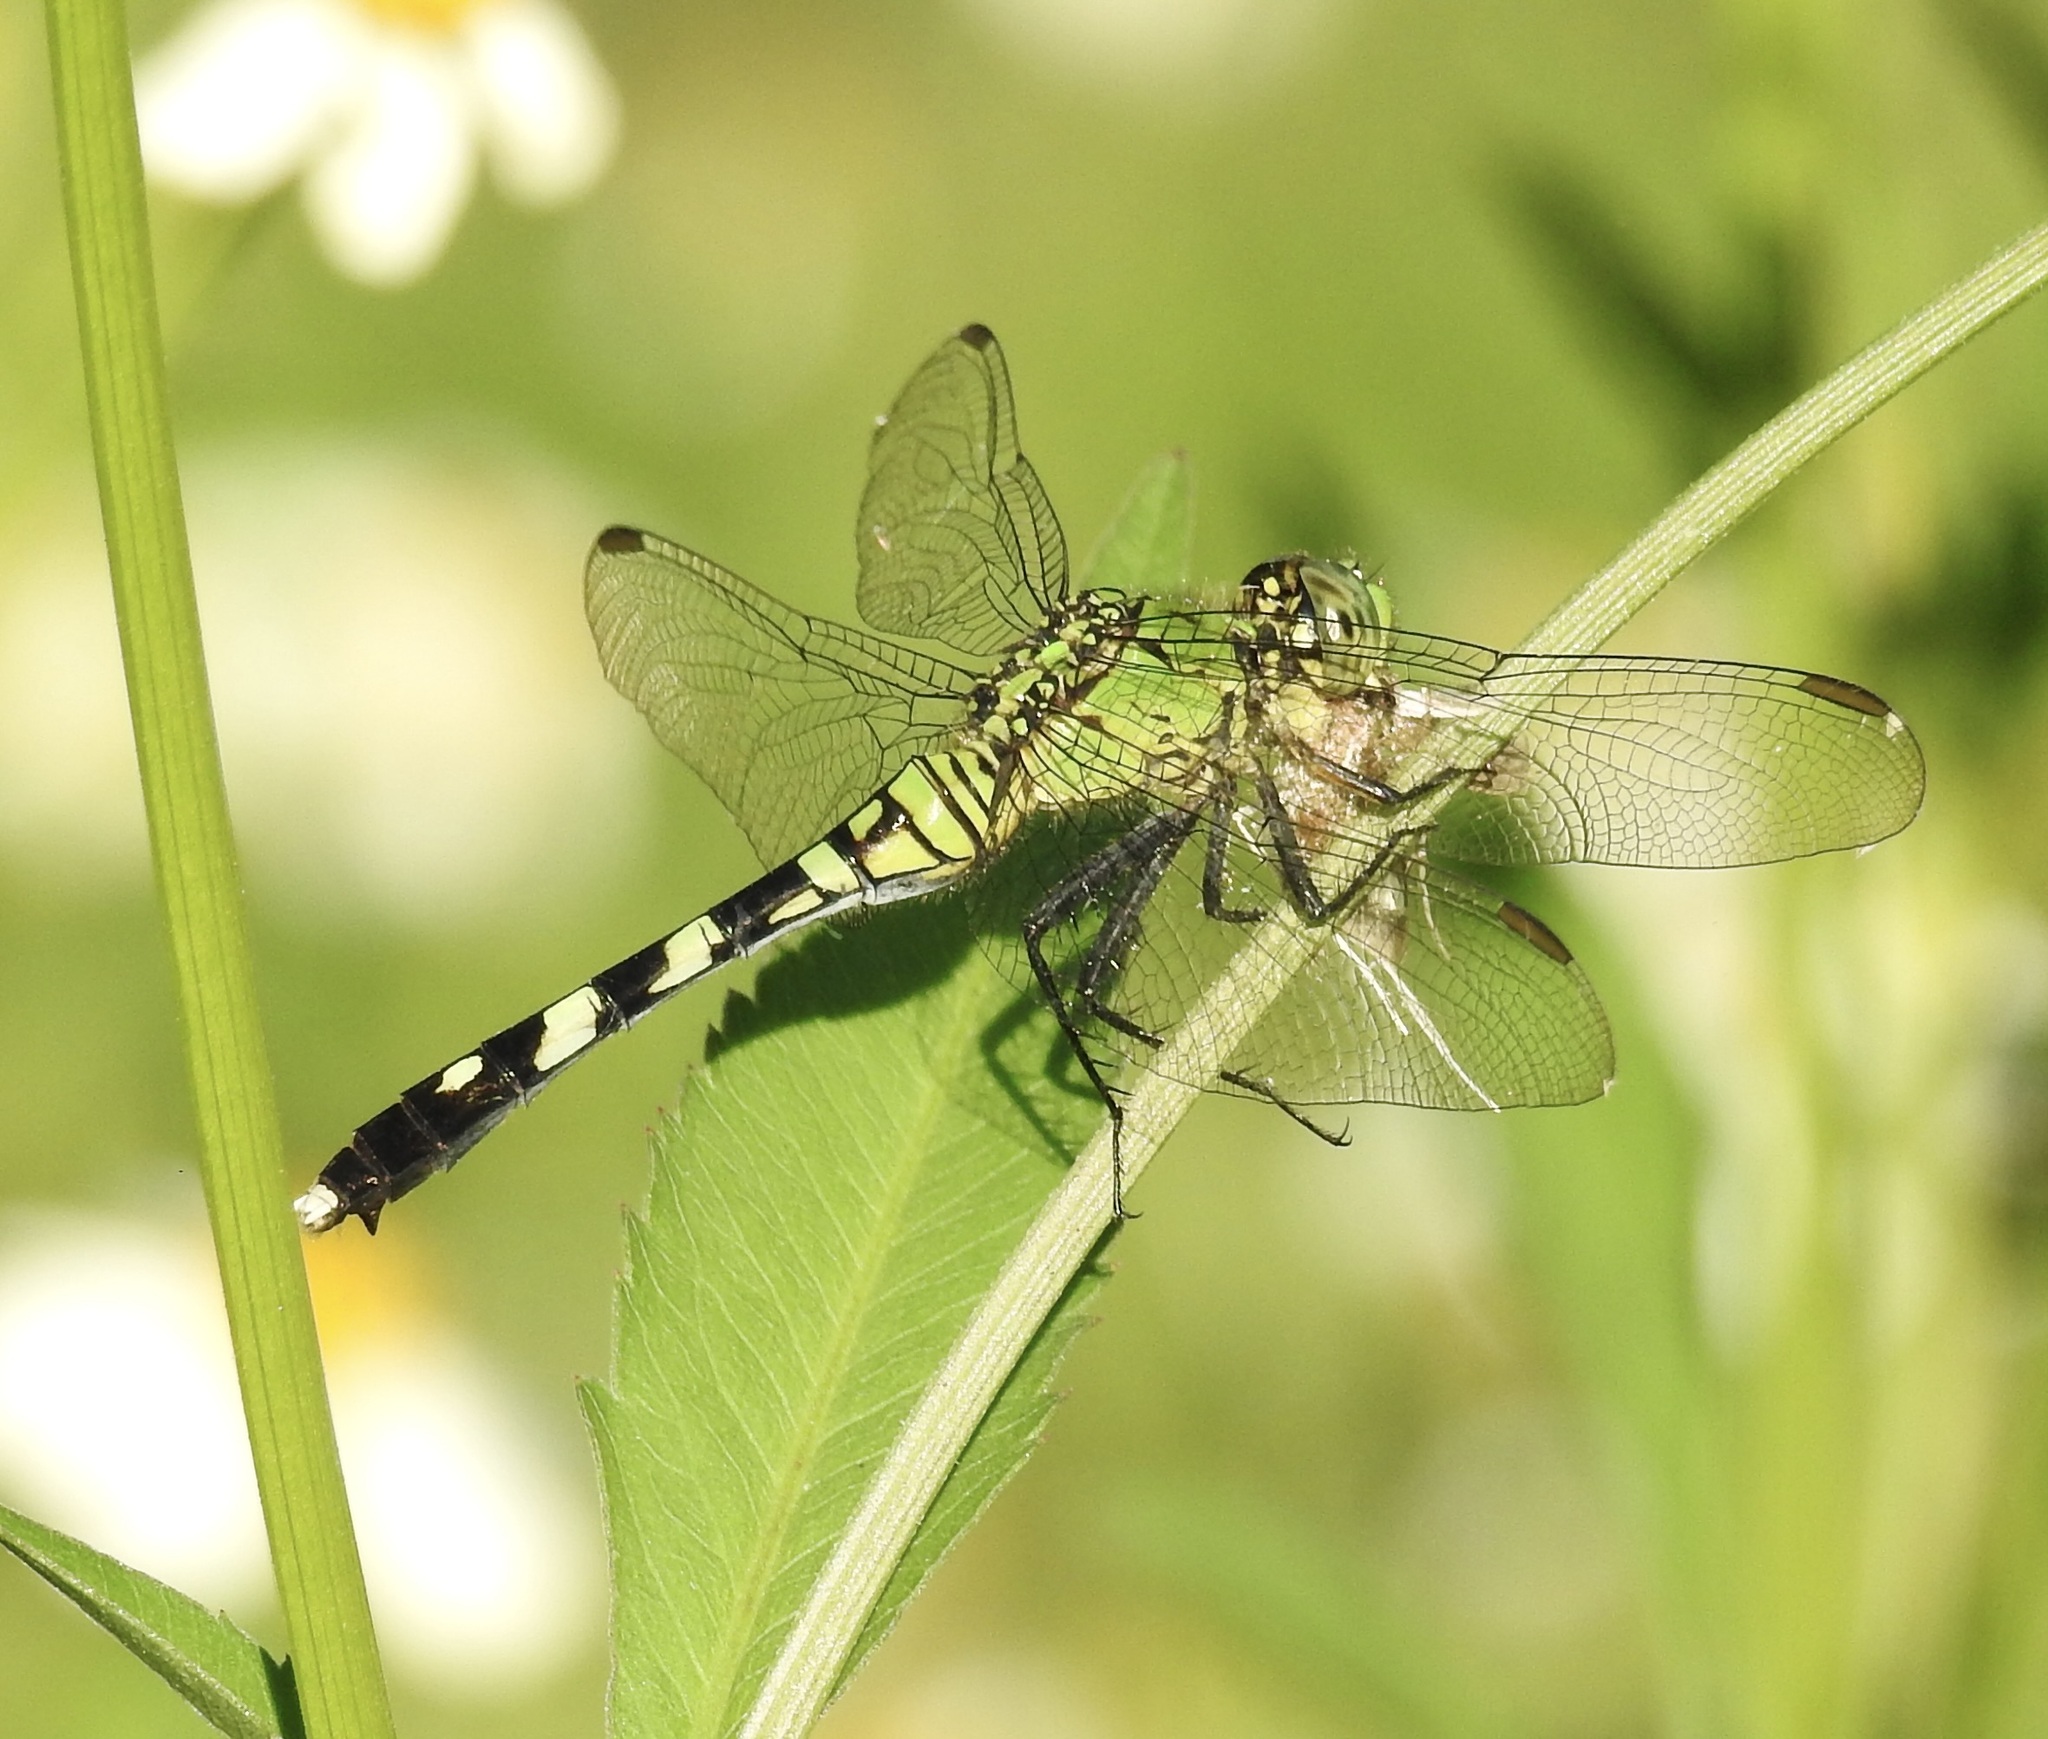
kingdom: Animalia
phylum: Arthropoda
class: Insecta
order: Odonata
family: Libellulidae
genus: Erythemis
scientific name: Erythemis simplicicollis
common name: Eastern pondhawk
